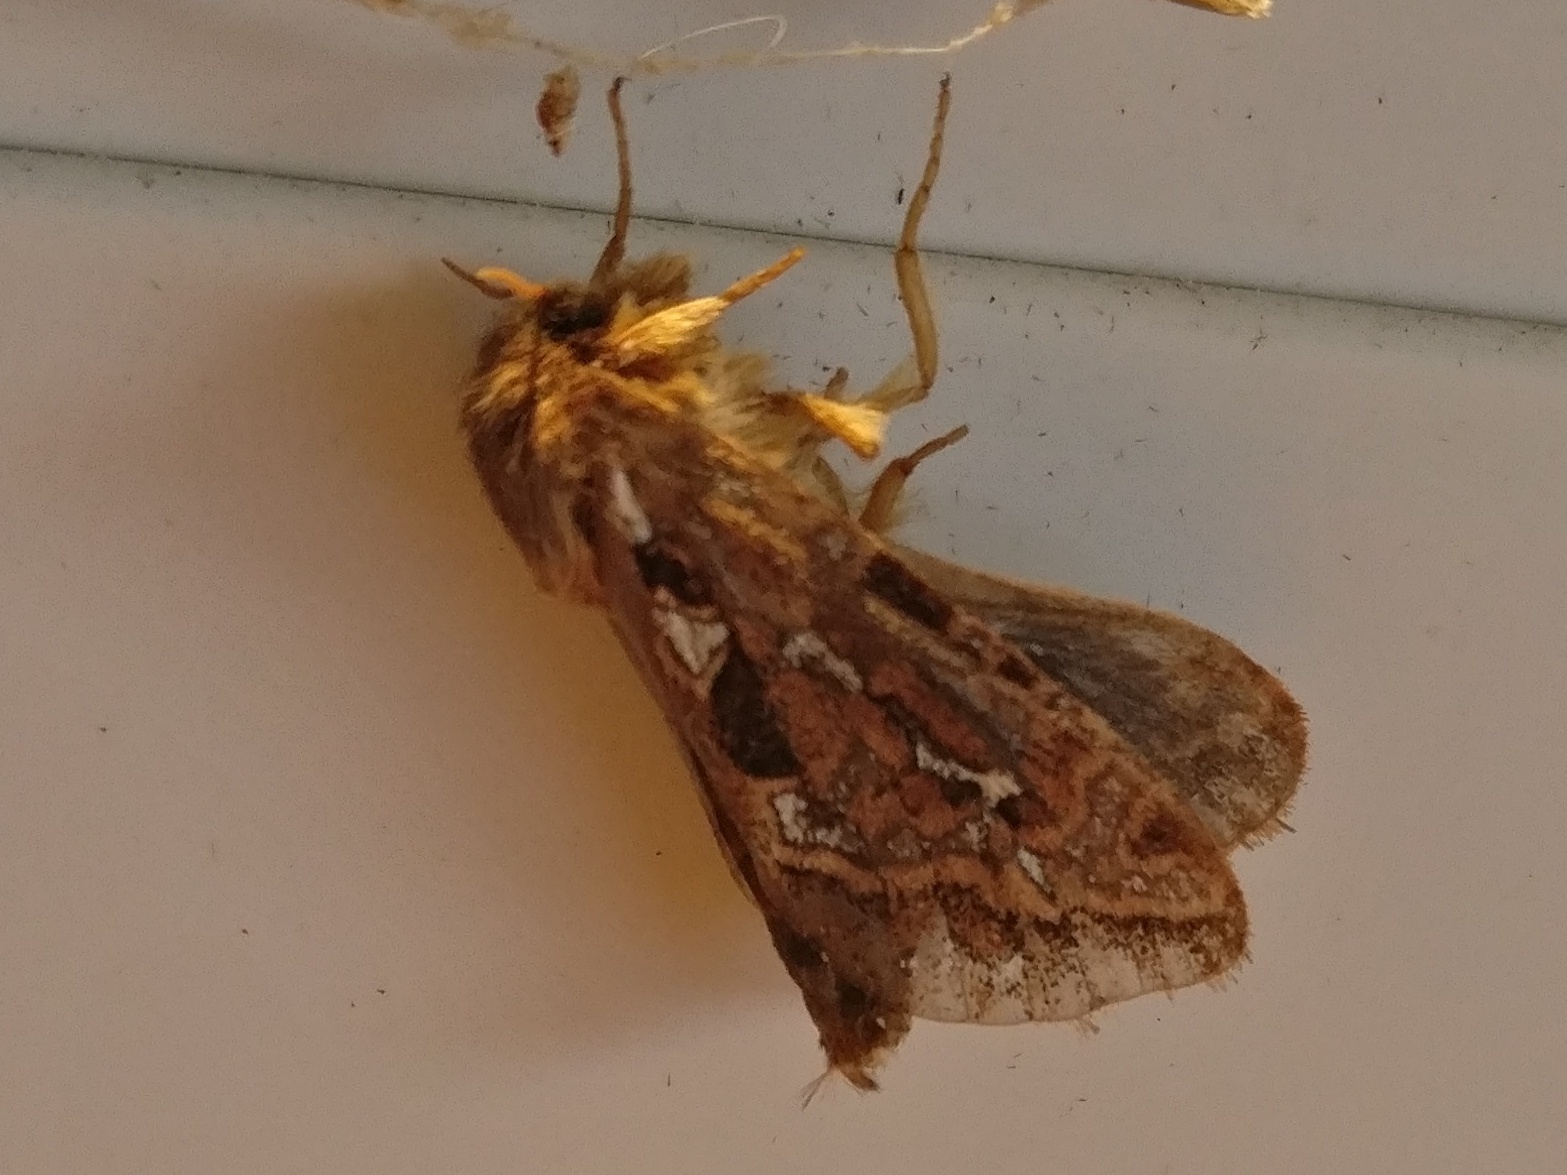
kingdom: Animalia
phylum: Arthropoda
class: Insecta
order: Lepidoptera
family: Hepialidae
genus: Korscheltellus
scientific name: Korscheltellus fusconebulosus
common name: Map-winged swift
